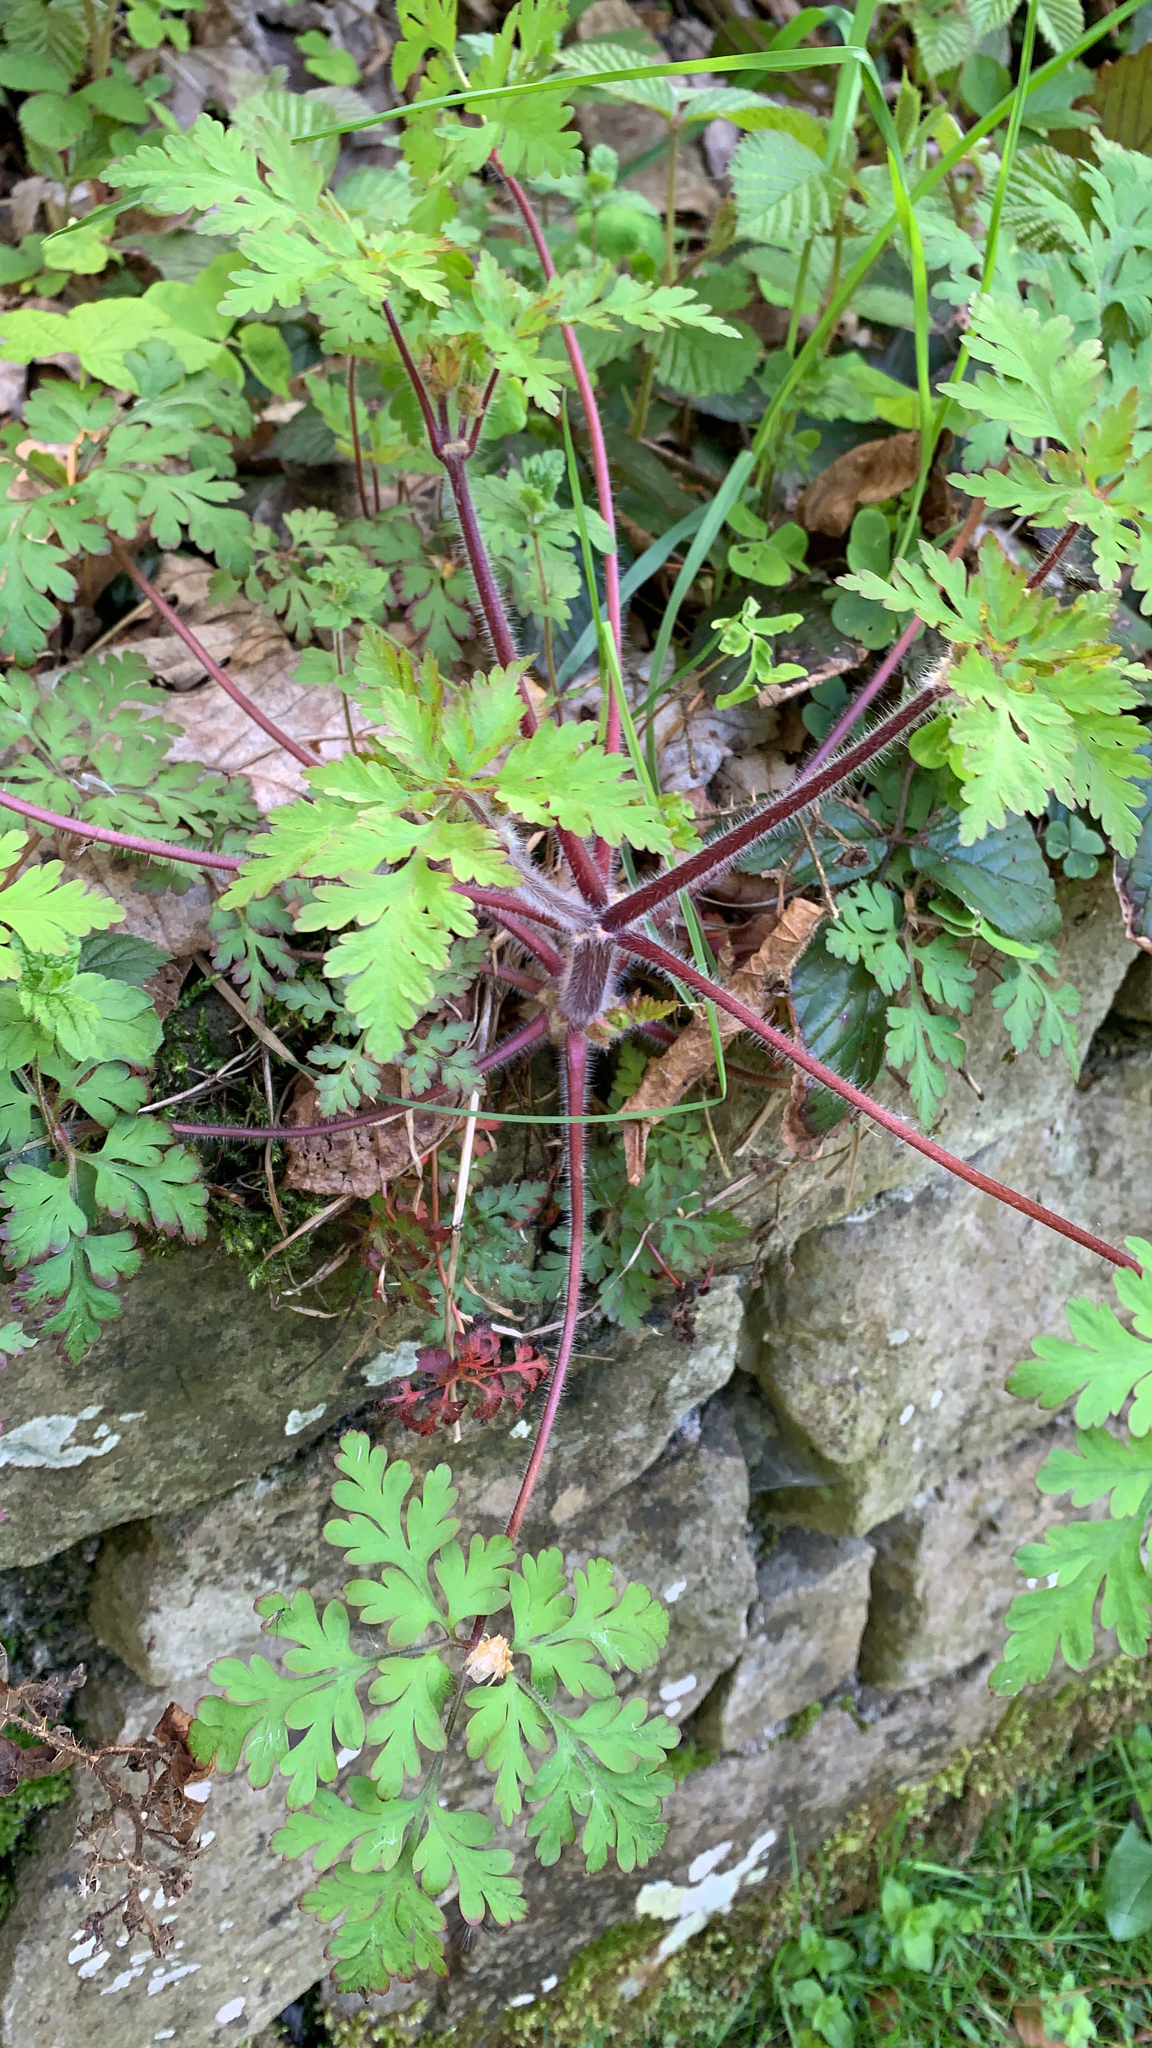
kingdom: Plantae
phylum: Tracheophyta
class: Magnoliopsida
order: Geraniales
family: Geraniaceae
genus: Geranium
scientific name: Geranium robertianum
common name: Herb-robert
